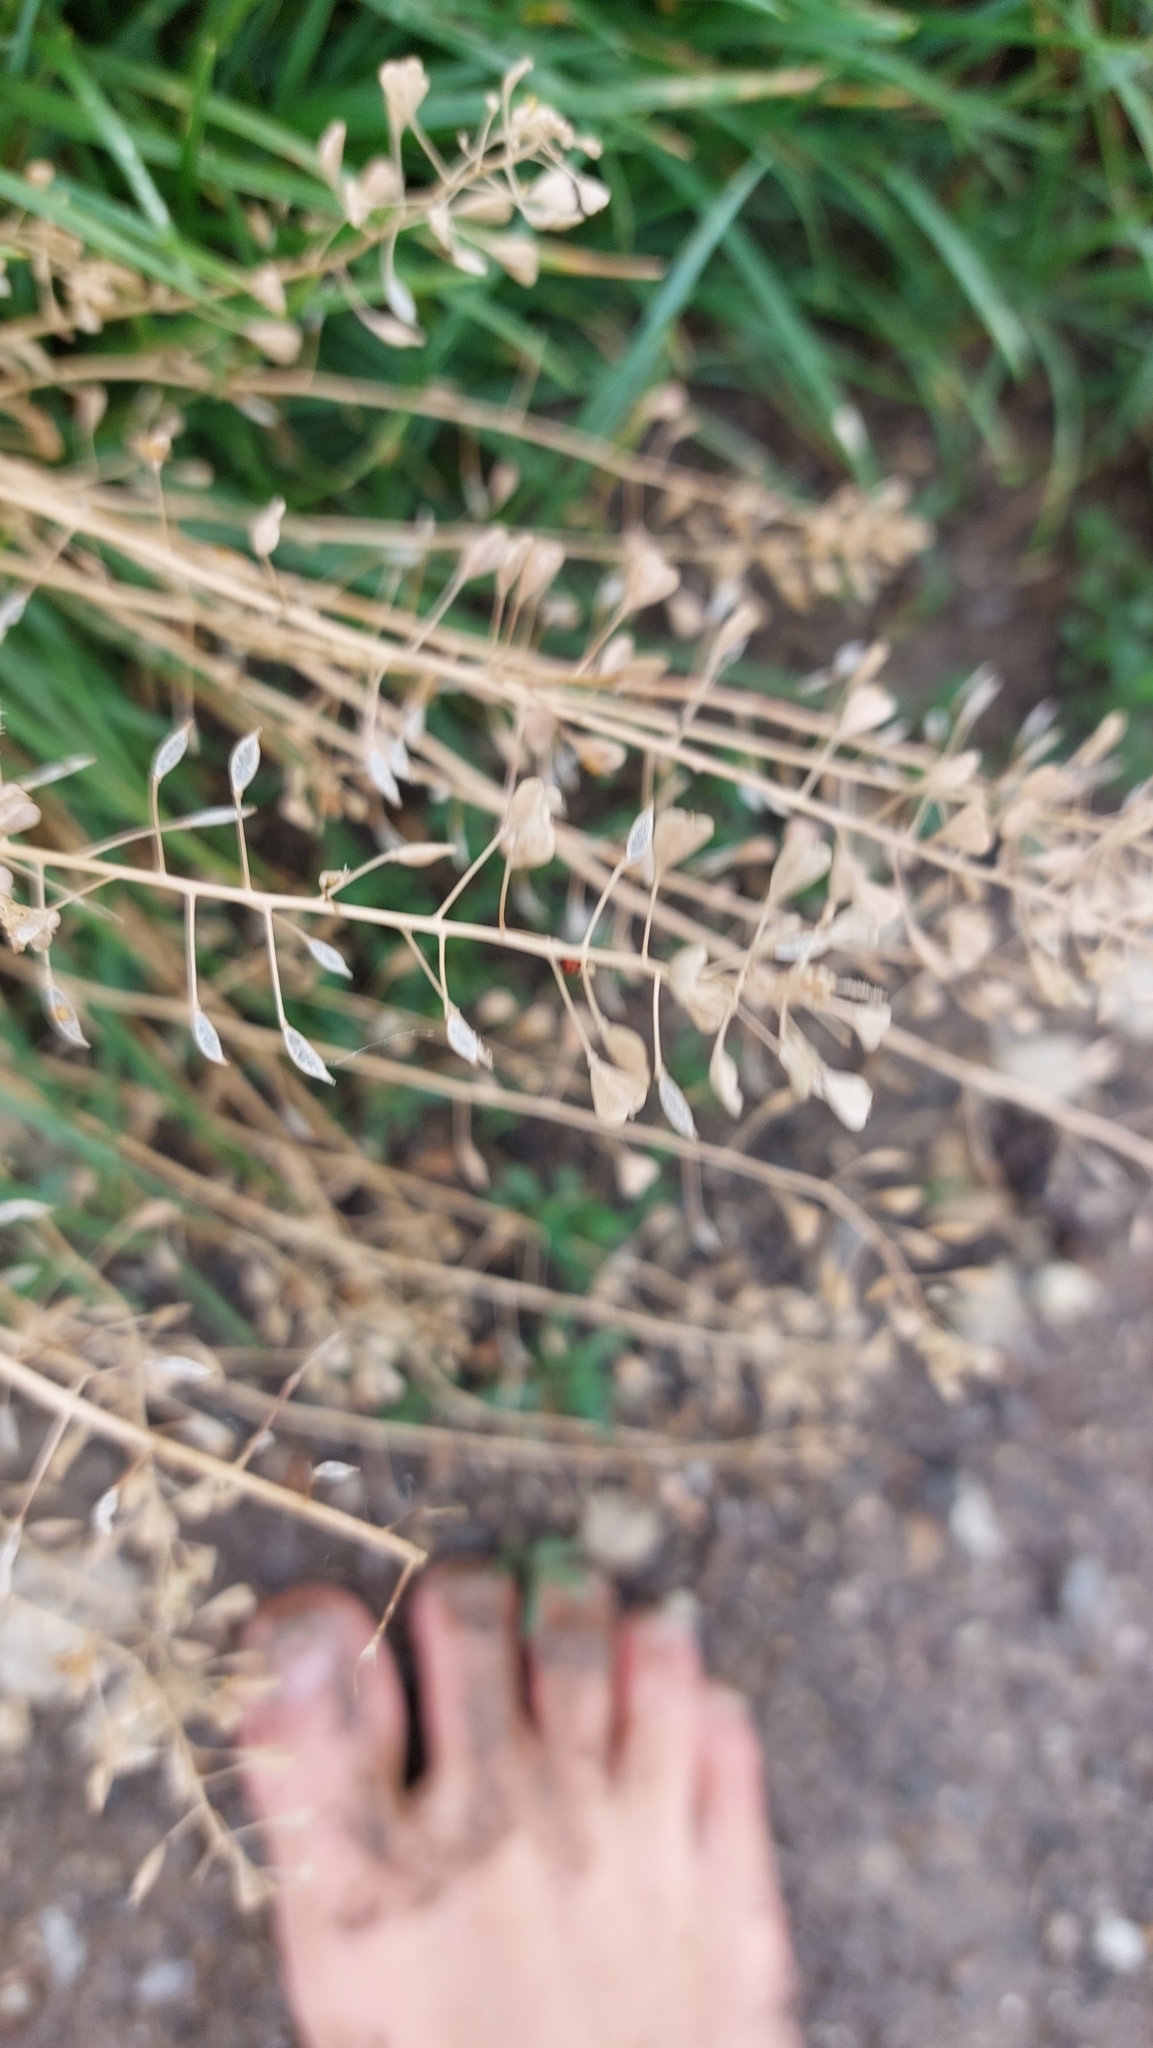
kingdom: Plantae
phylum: Tracheophyta
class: Magnoliopsida
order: Brassicales
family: Brassicaceae
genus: Capsella
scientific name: Capsella bursa-pastoris
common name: Shepherd's purse
